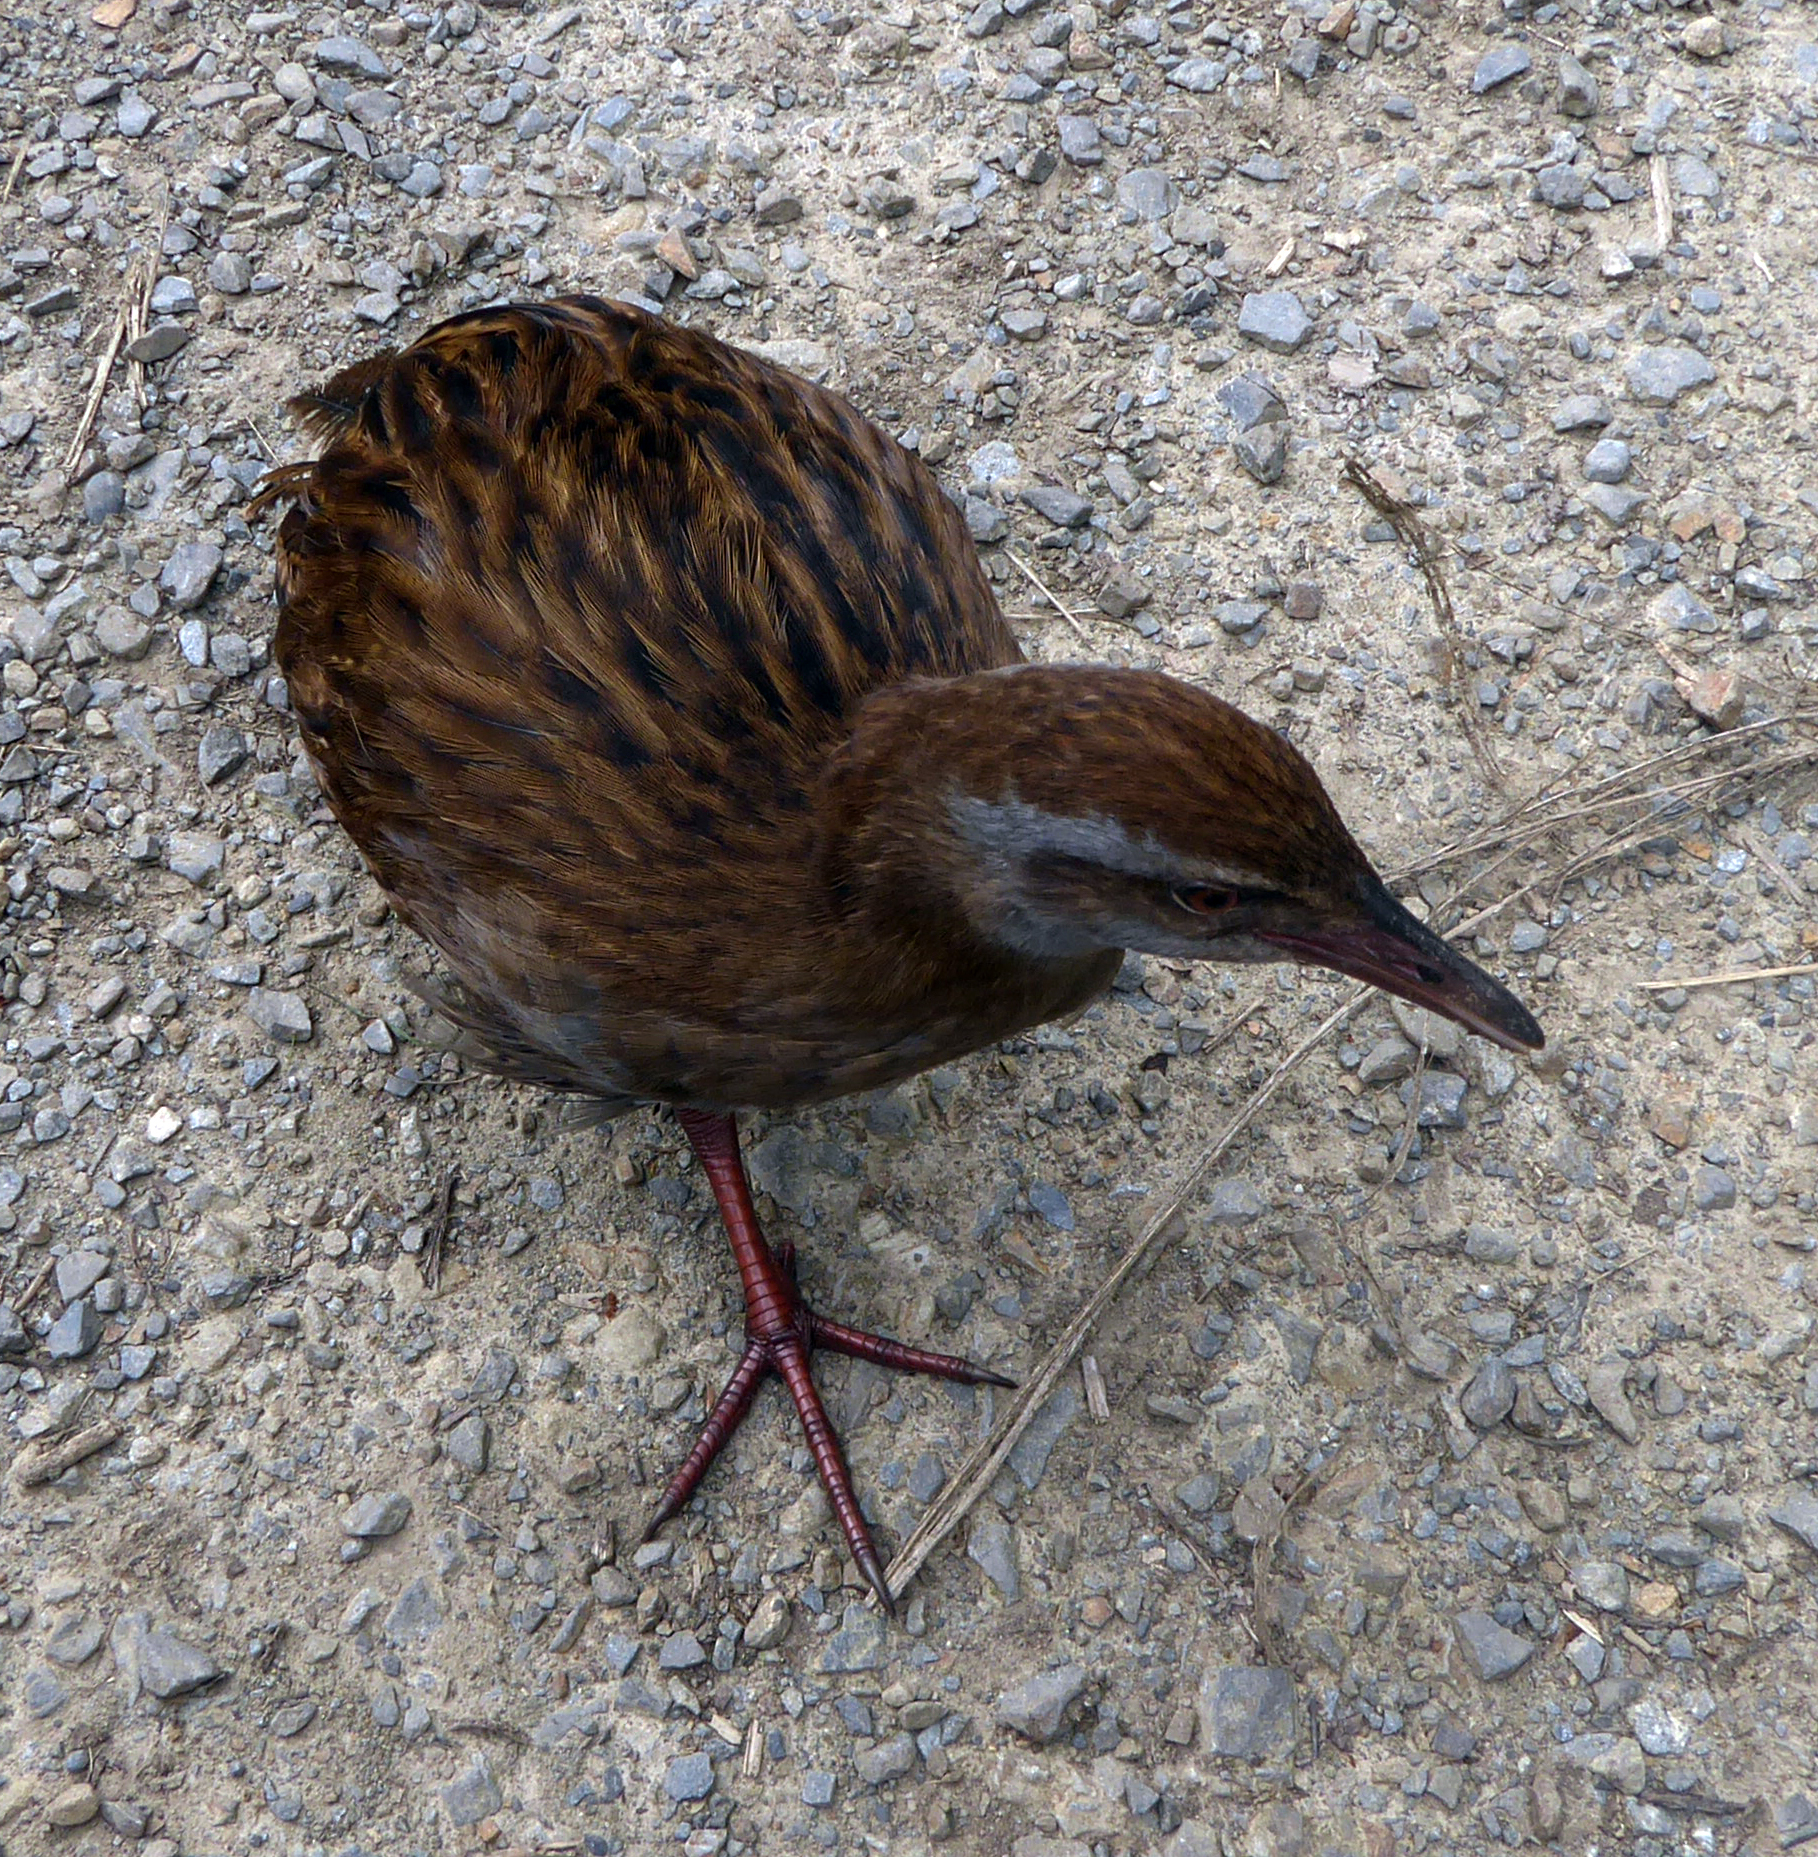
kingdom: Animalia
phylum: Chordata
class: Aves
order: Gruiformes
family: Rallidae
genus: Gallirallus
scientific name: Gallirallus
